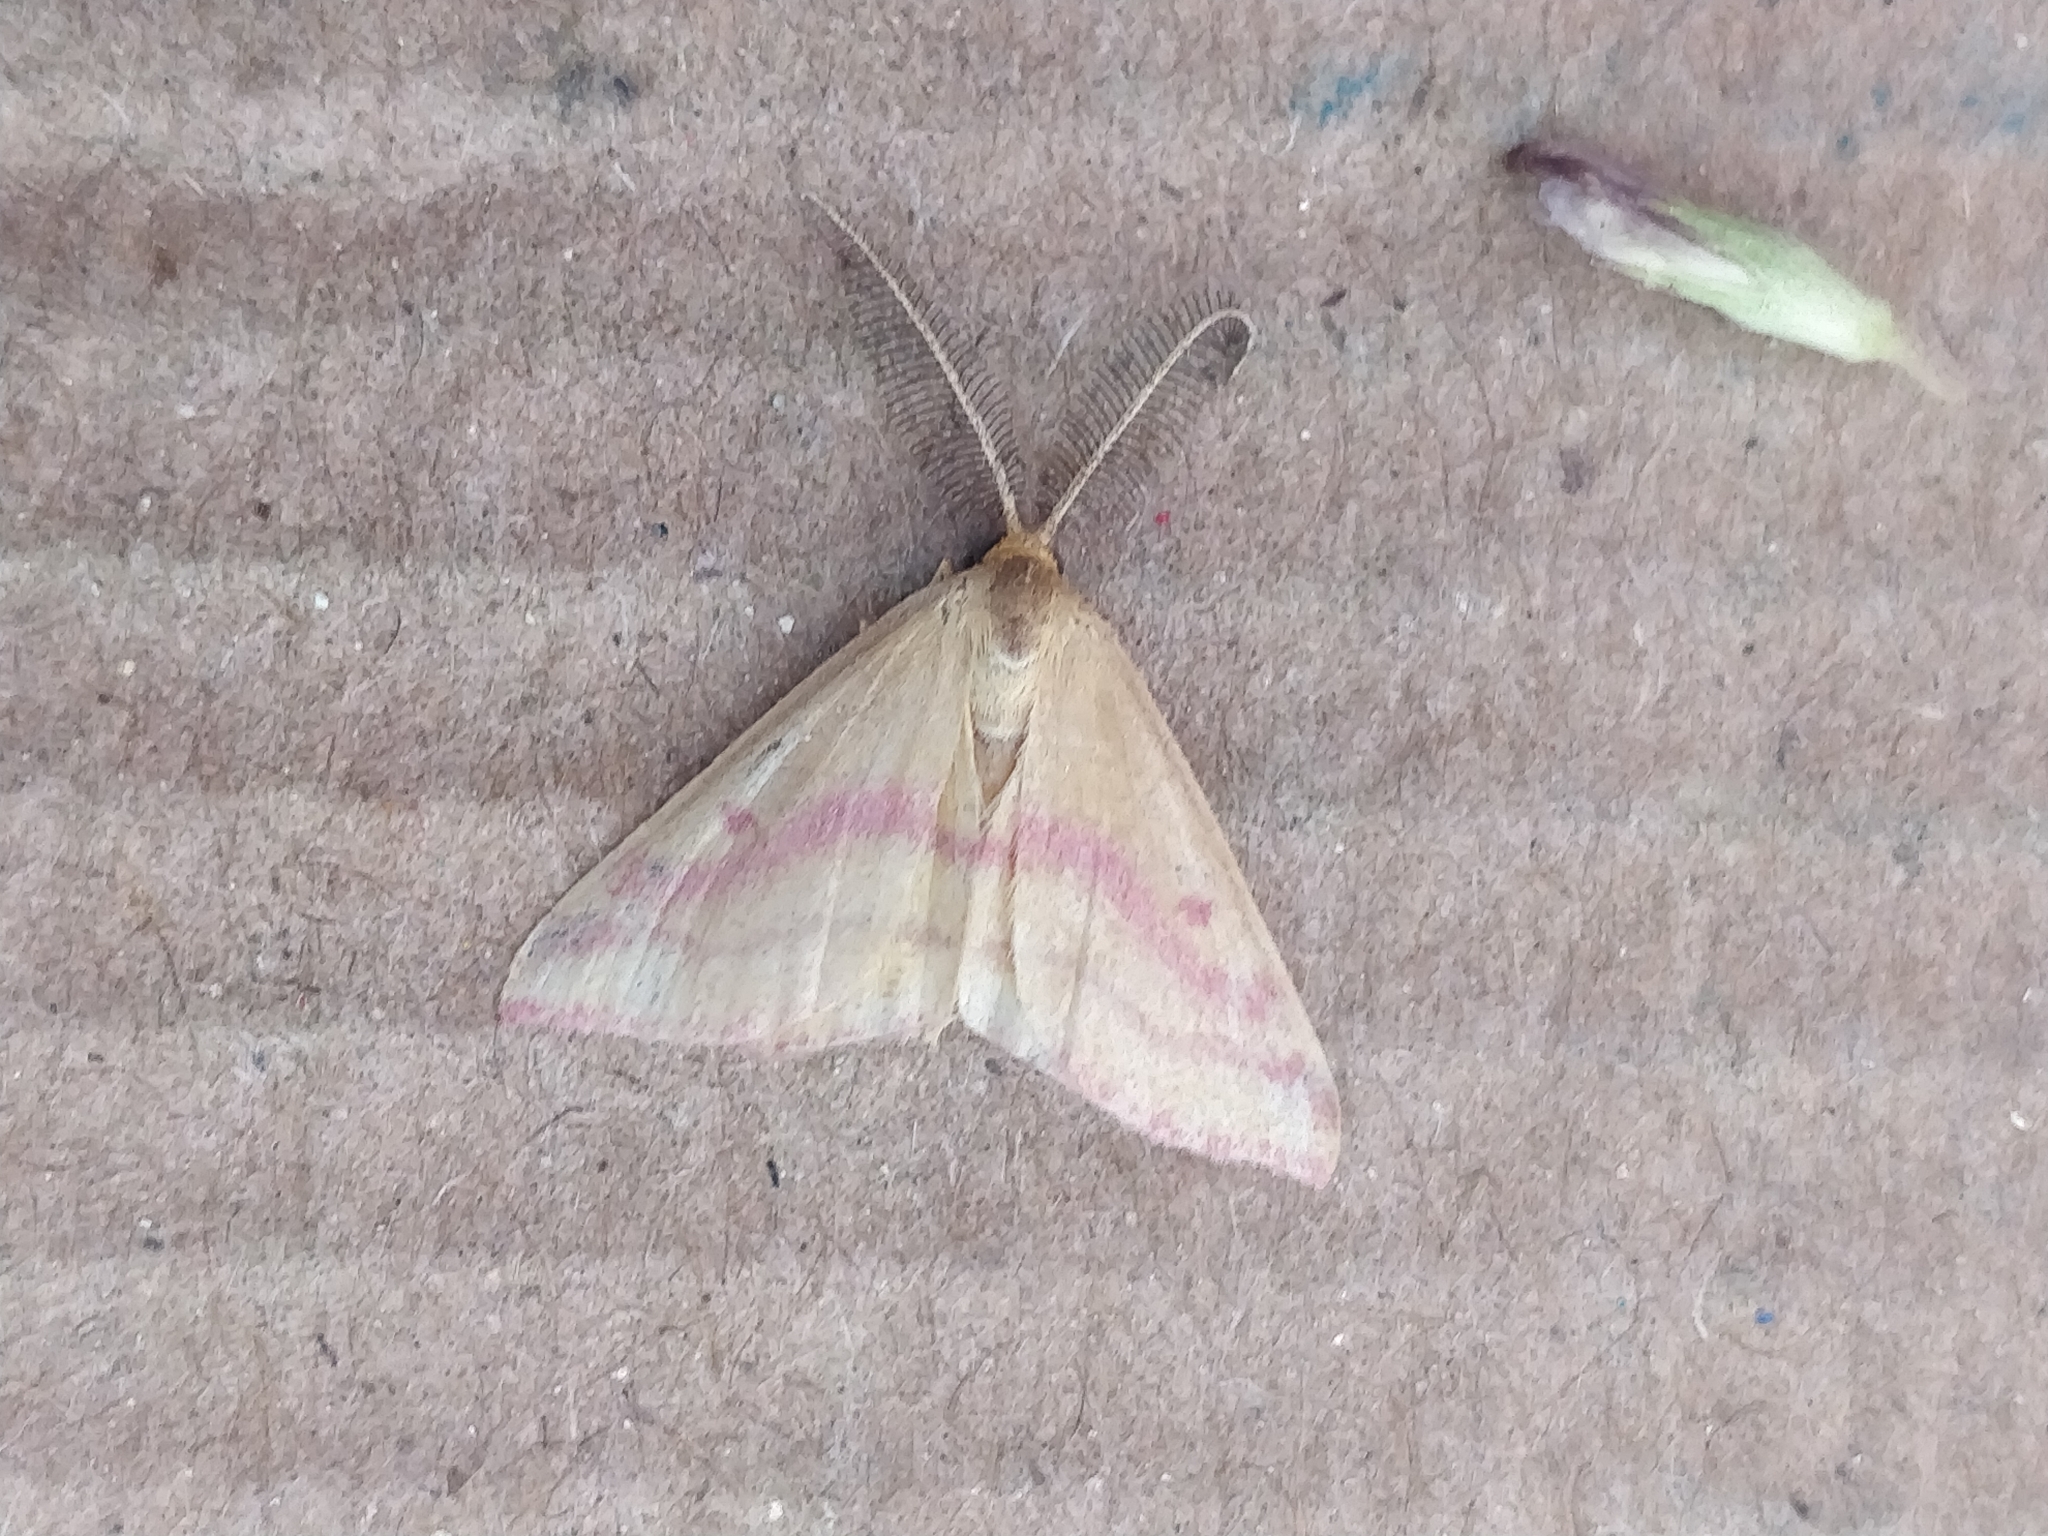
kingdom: Animalia
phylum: Arthropoda
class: Insecta
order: Lepidoptera
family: Geometridae
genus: Haematopis
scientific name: Haematopis grataria
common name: Chickweed geometer
